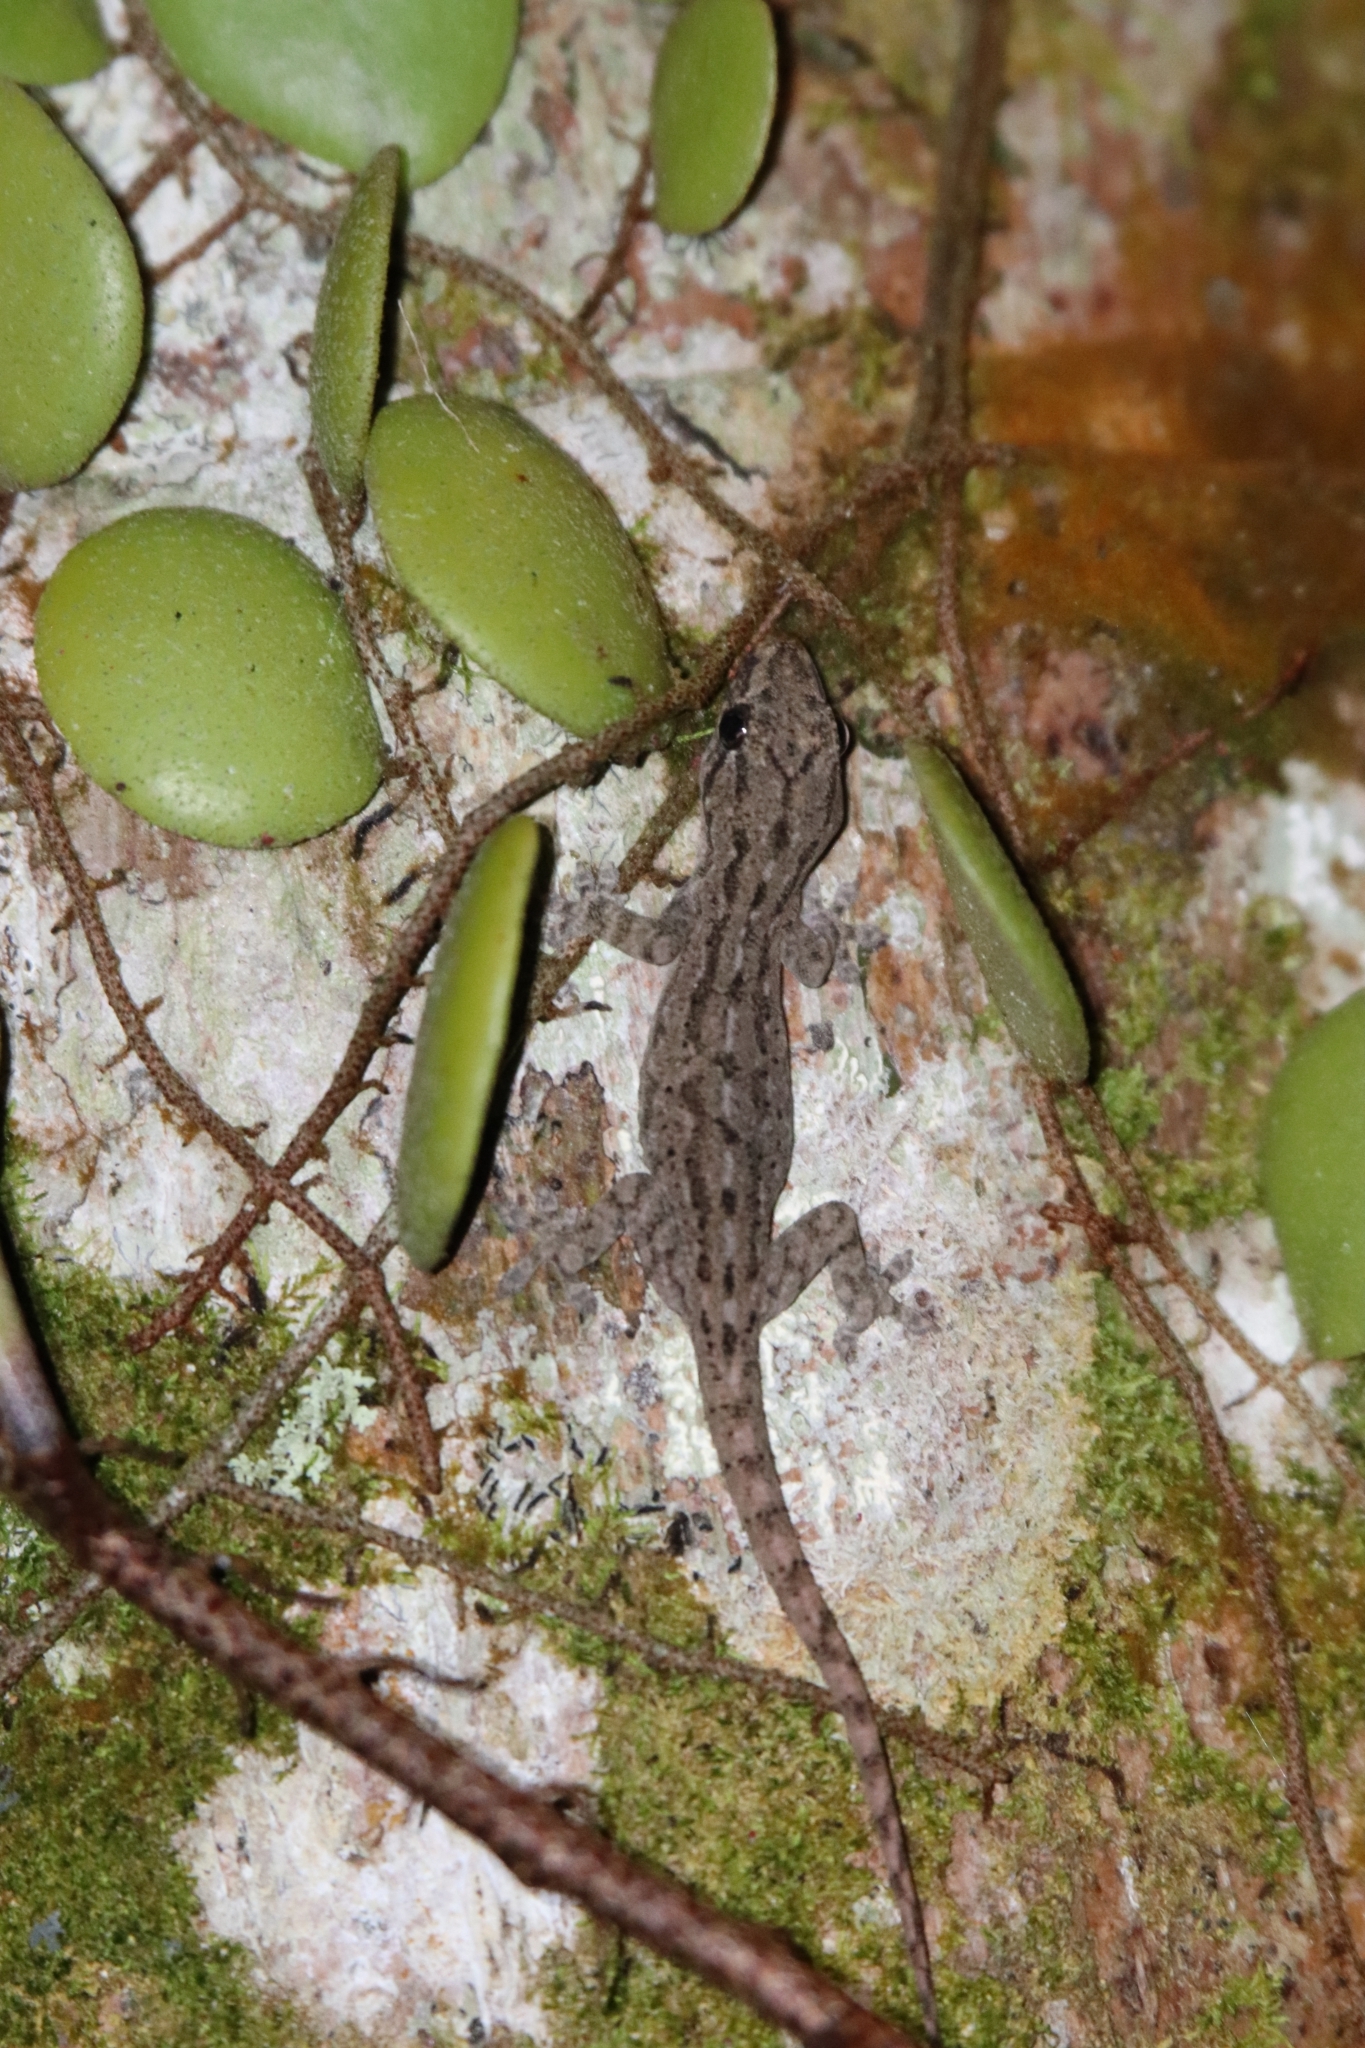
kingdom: Animalia
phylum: Chordata
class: Squamata
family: Gekkonidae
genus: Hemidactylus
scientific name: Hemidactylus frenatus
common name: Common house gecko
